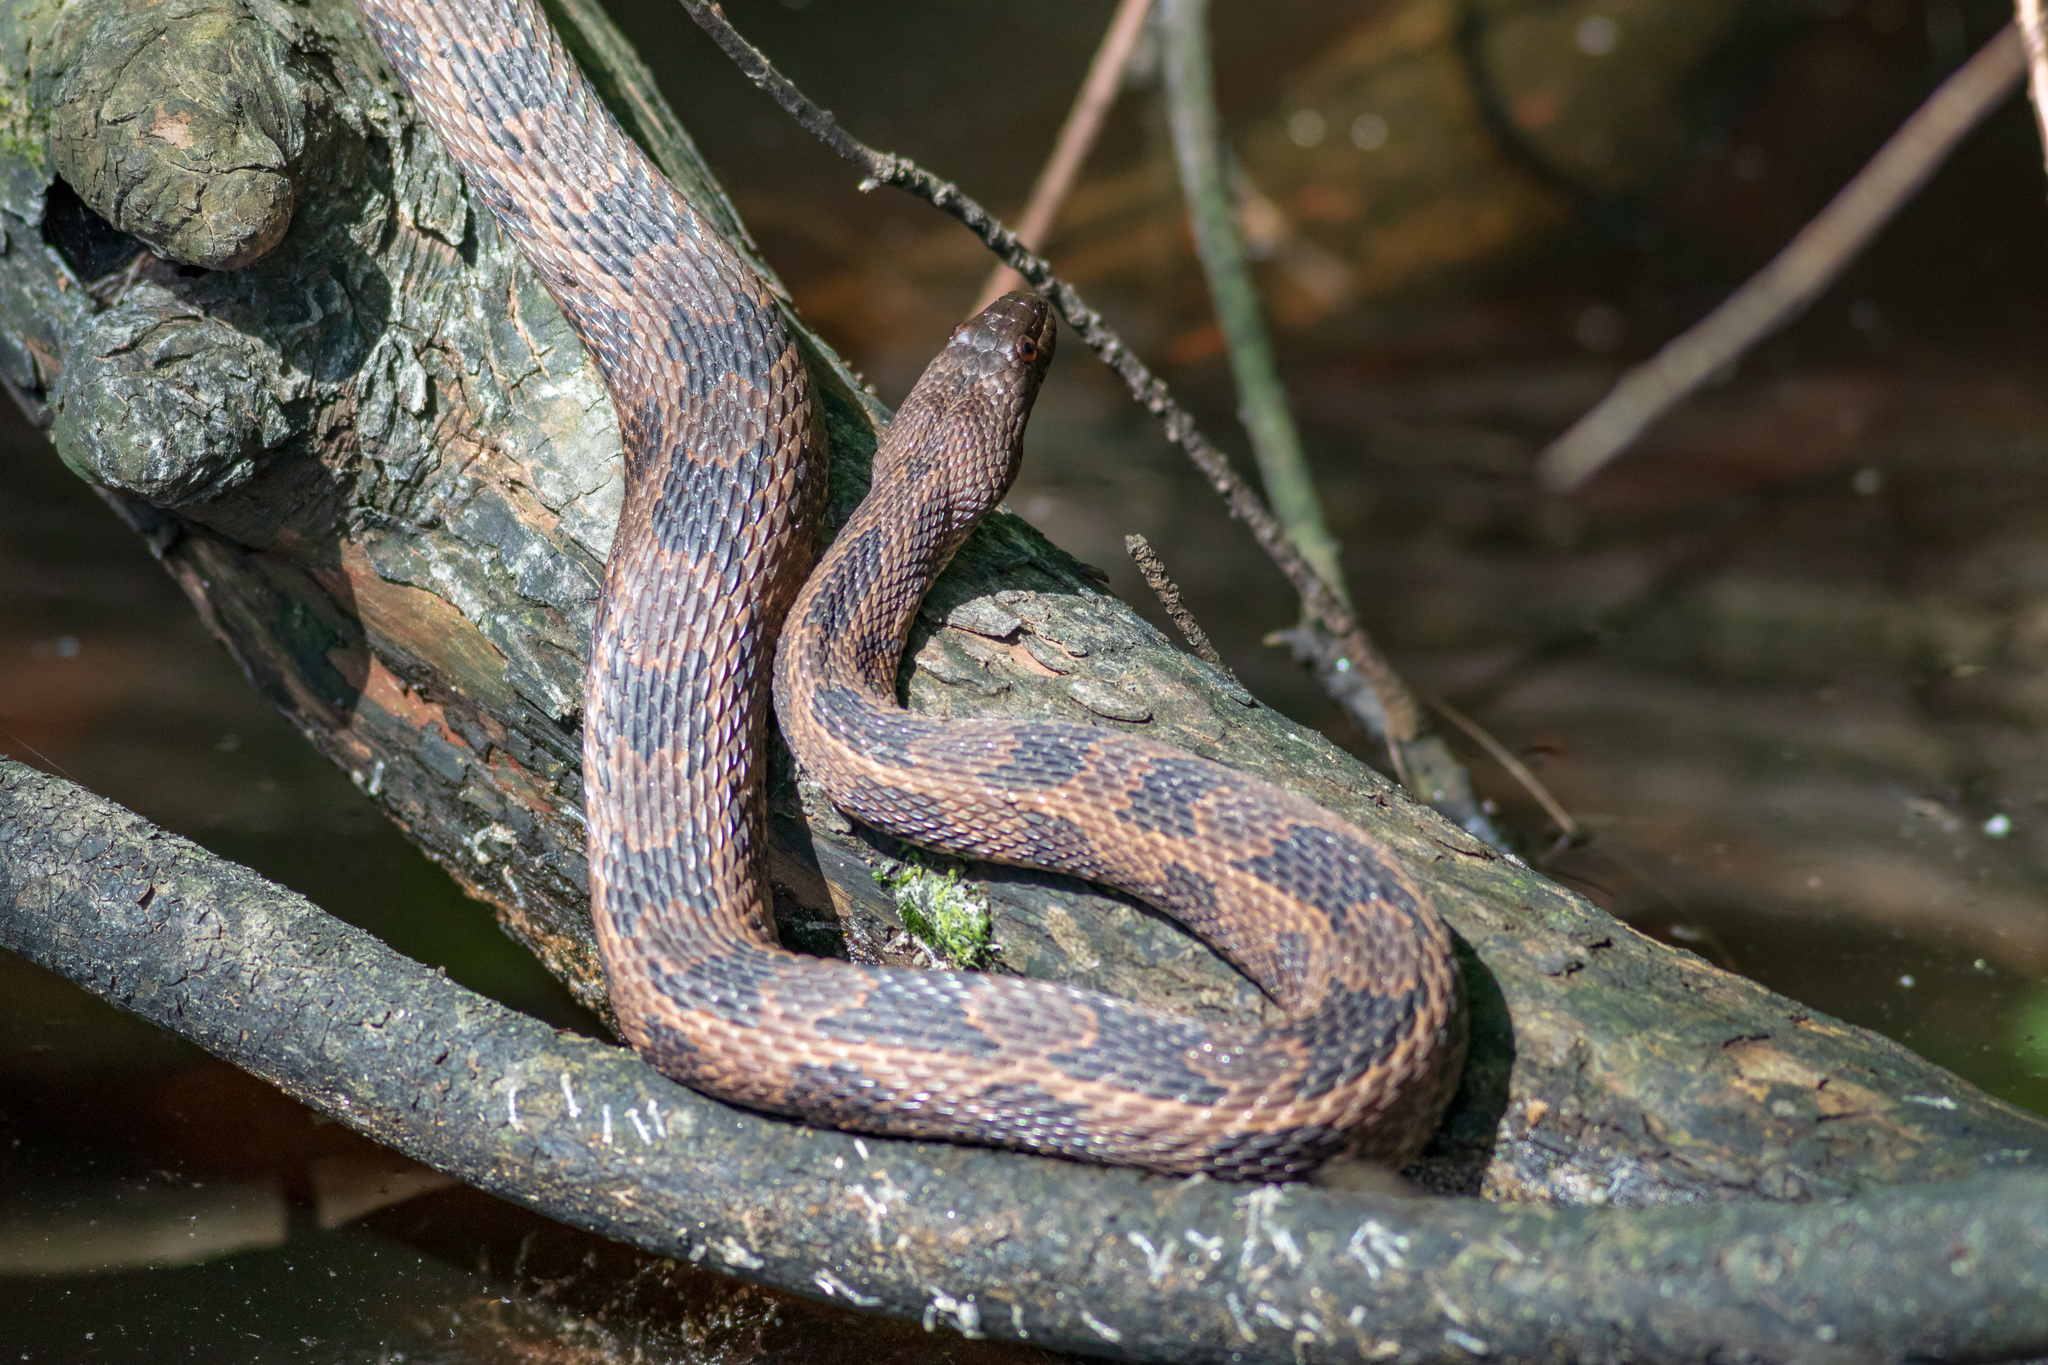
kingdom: Animalia
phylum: Chordata
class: Squamata
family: Colubridae
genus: Nerodia
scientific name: Nerodia taxispilota
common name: Brown water snake
